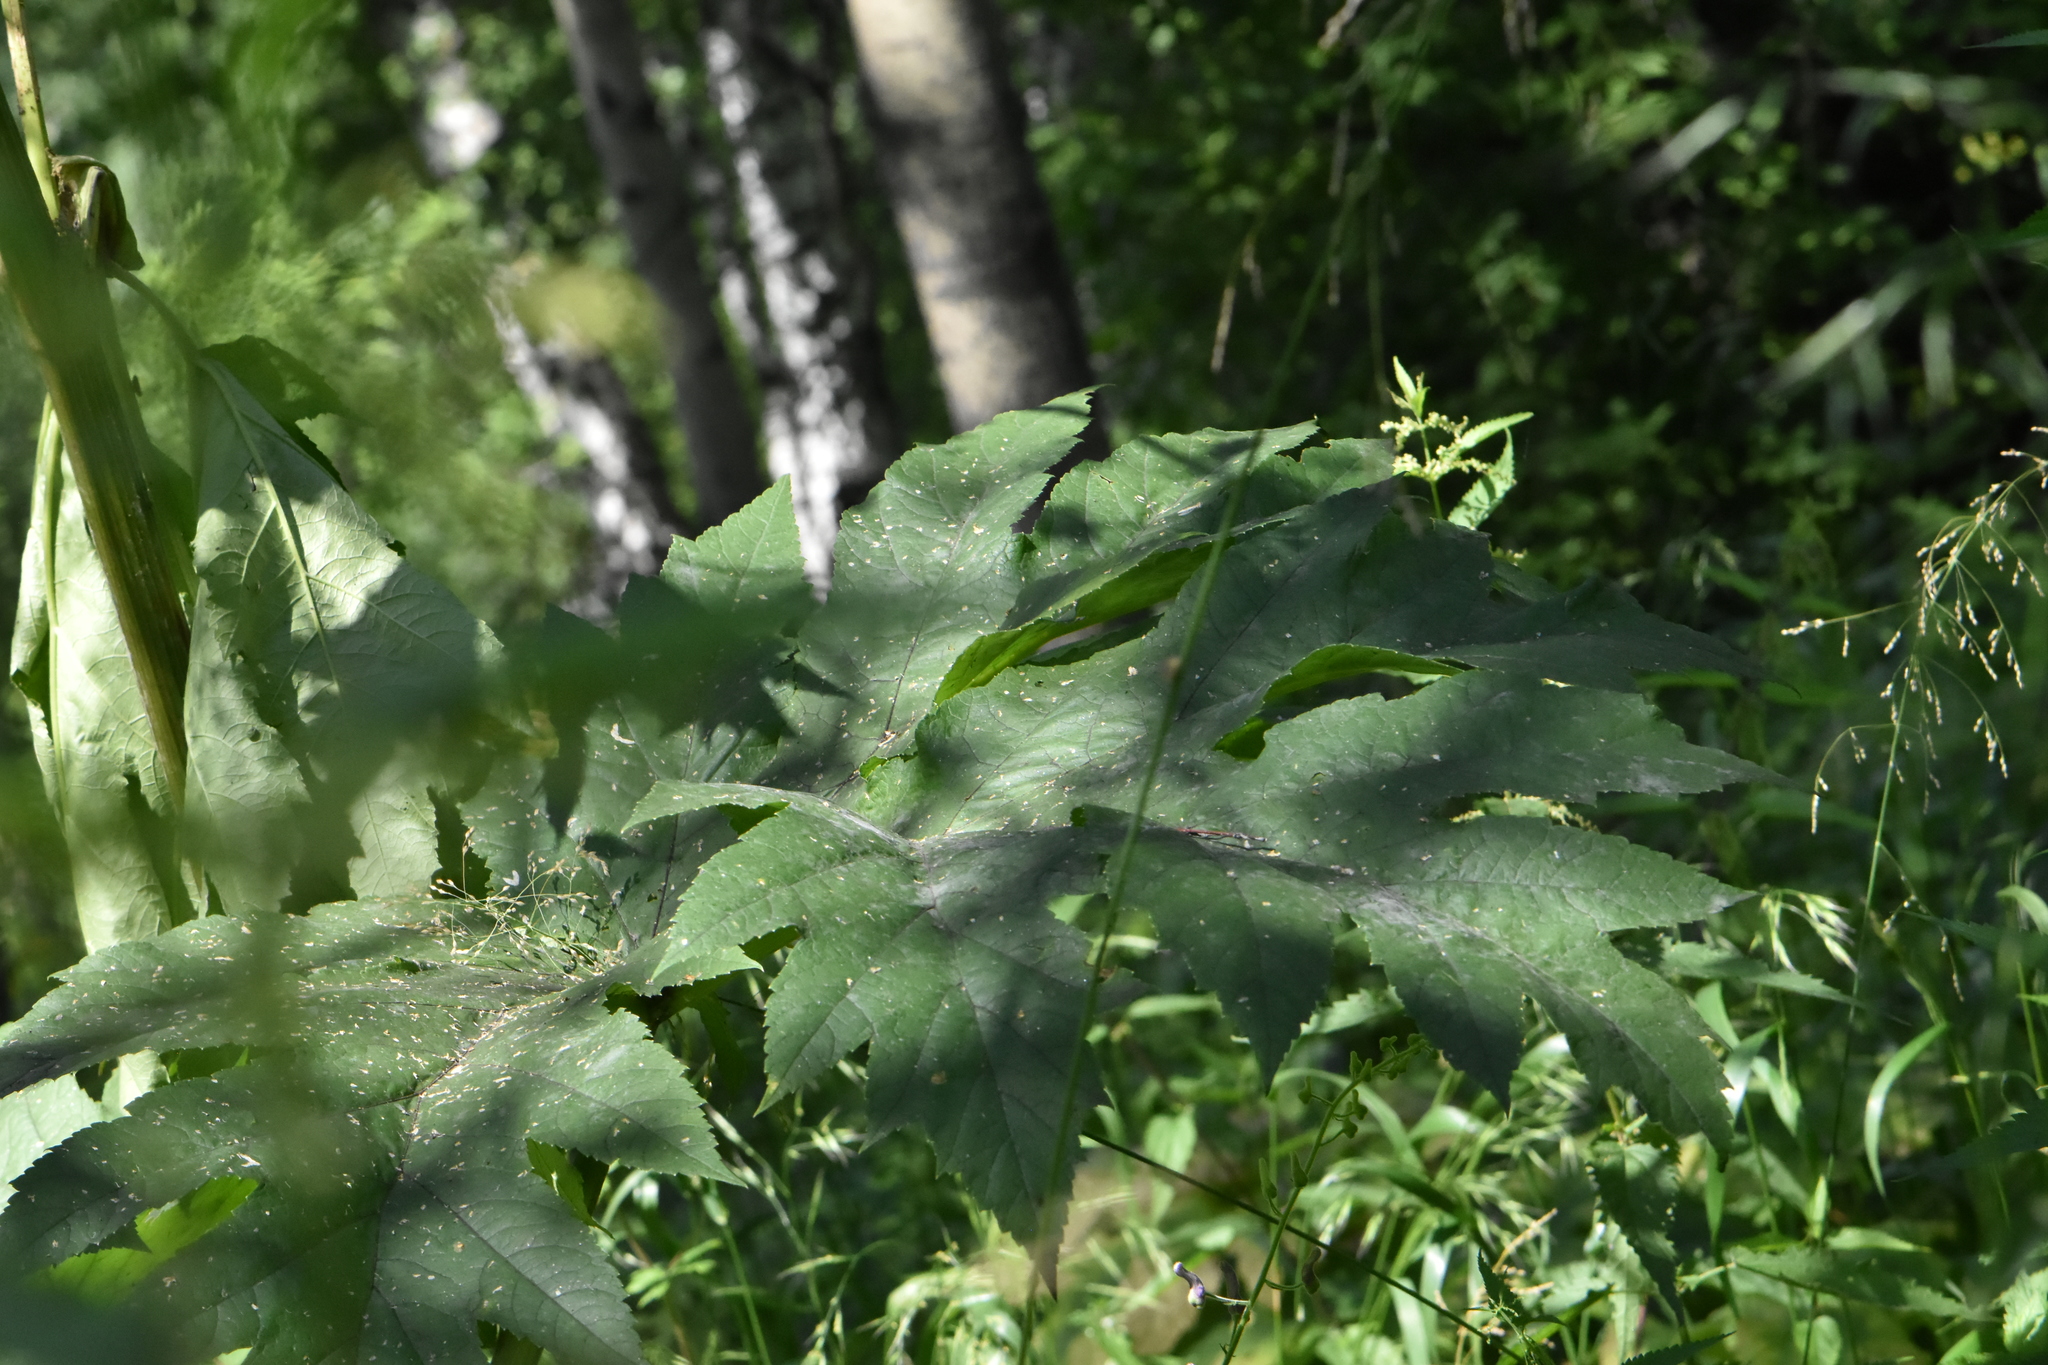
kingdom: Plantae
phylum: Tracheophyta
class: Magnoliopsida
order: Apiales
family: Apiaceae
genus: Heracleum
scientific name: Heracleum dissectum
